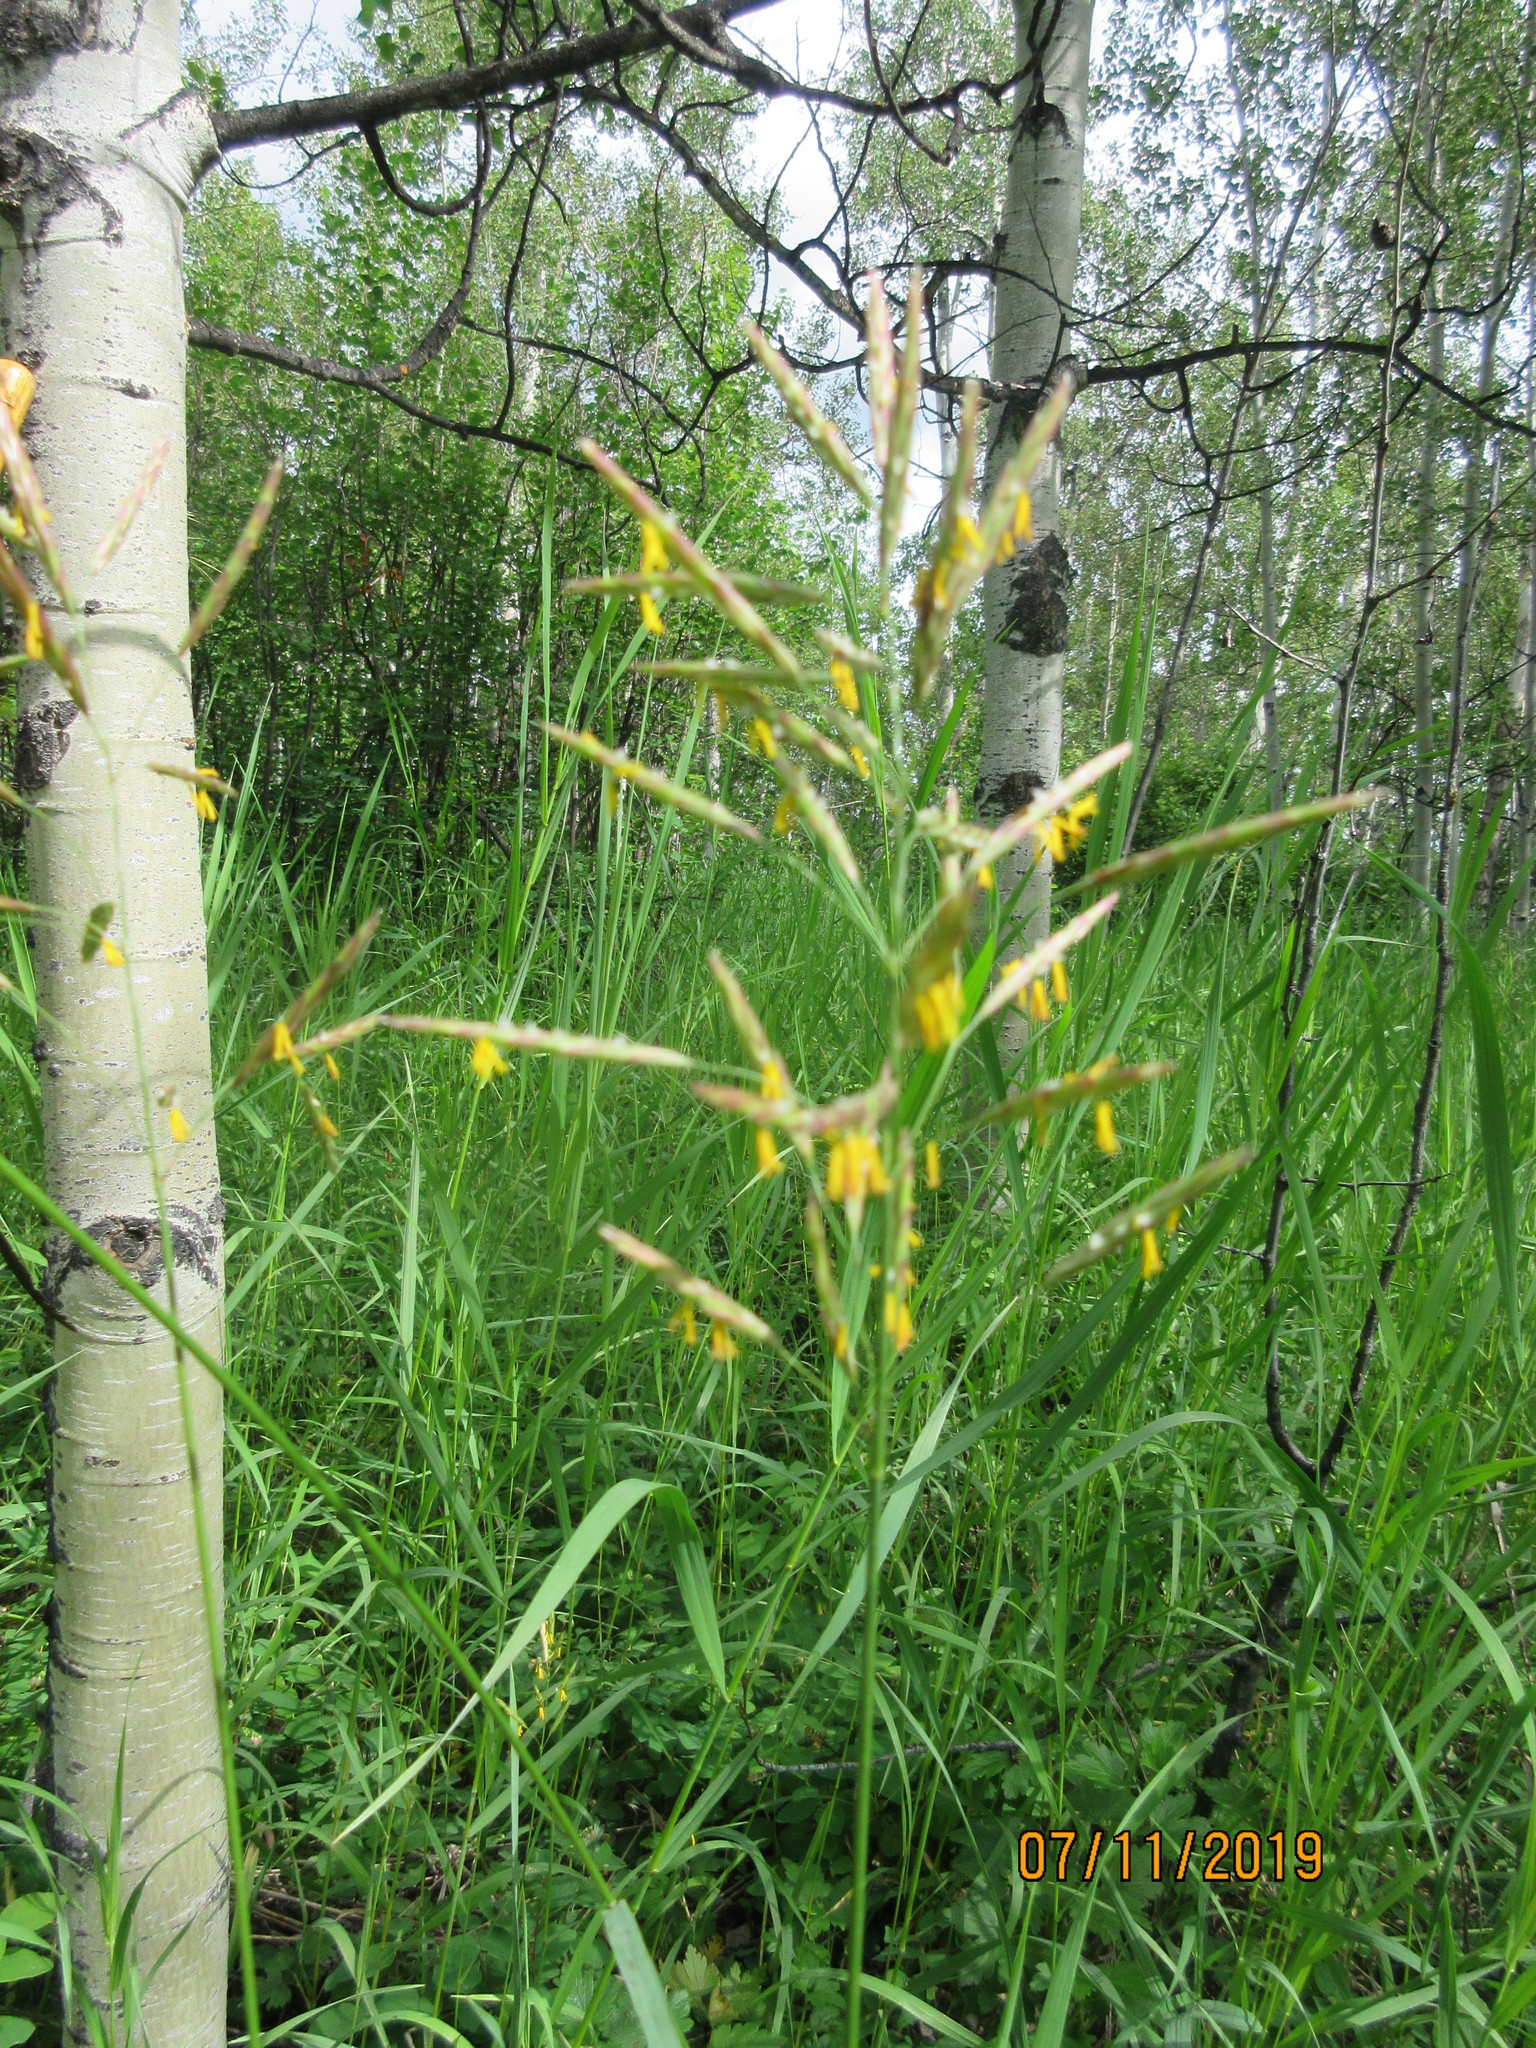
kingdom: Plantae
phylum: Tracheophyta
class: Liliopsida
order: Poales
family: Poaceae
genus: Bromus
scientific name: Bromus inermis
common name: Smooth brome
